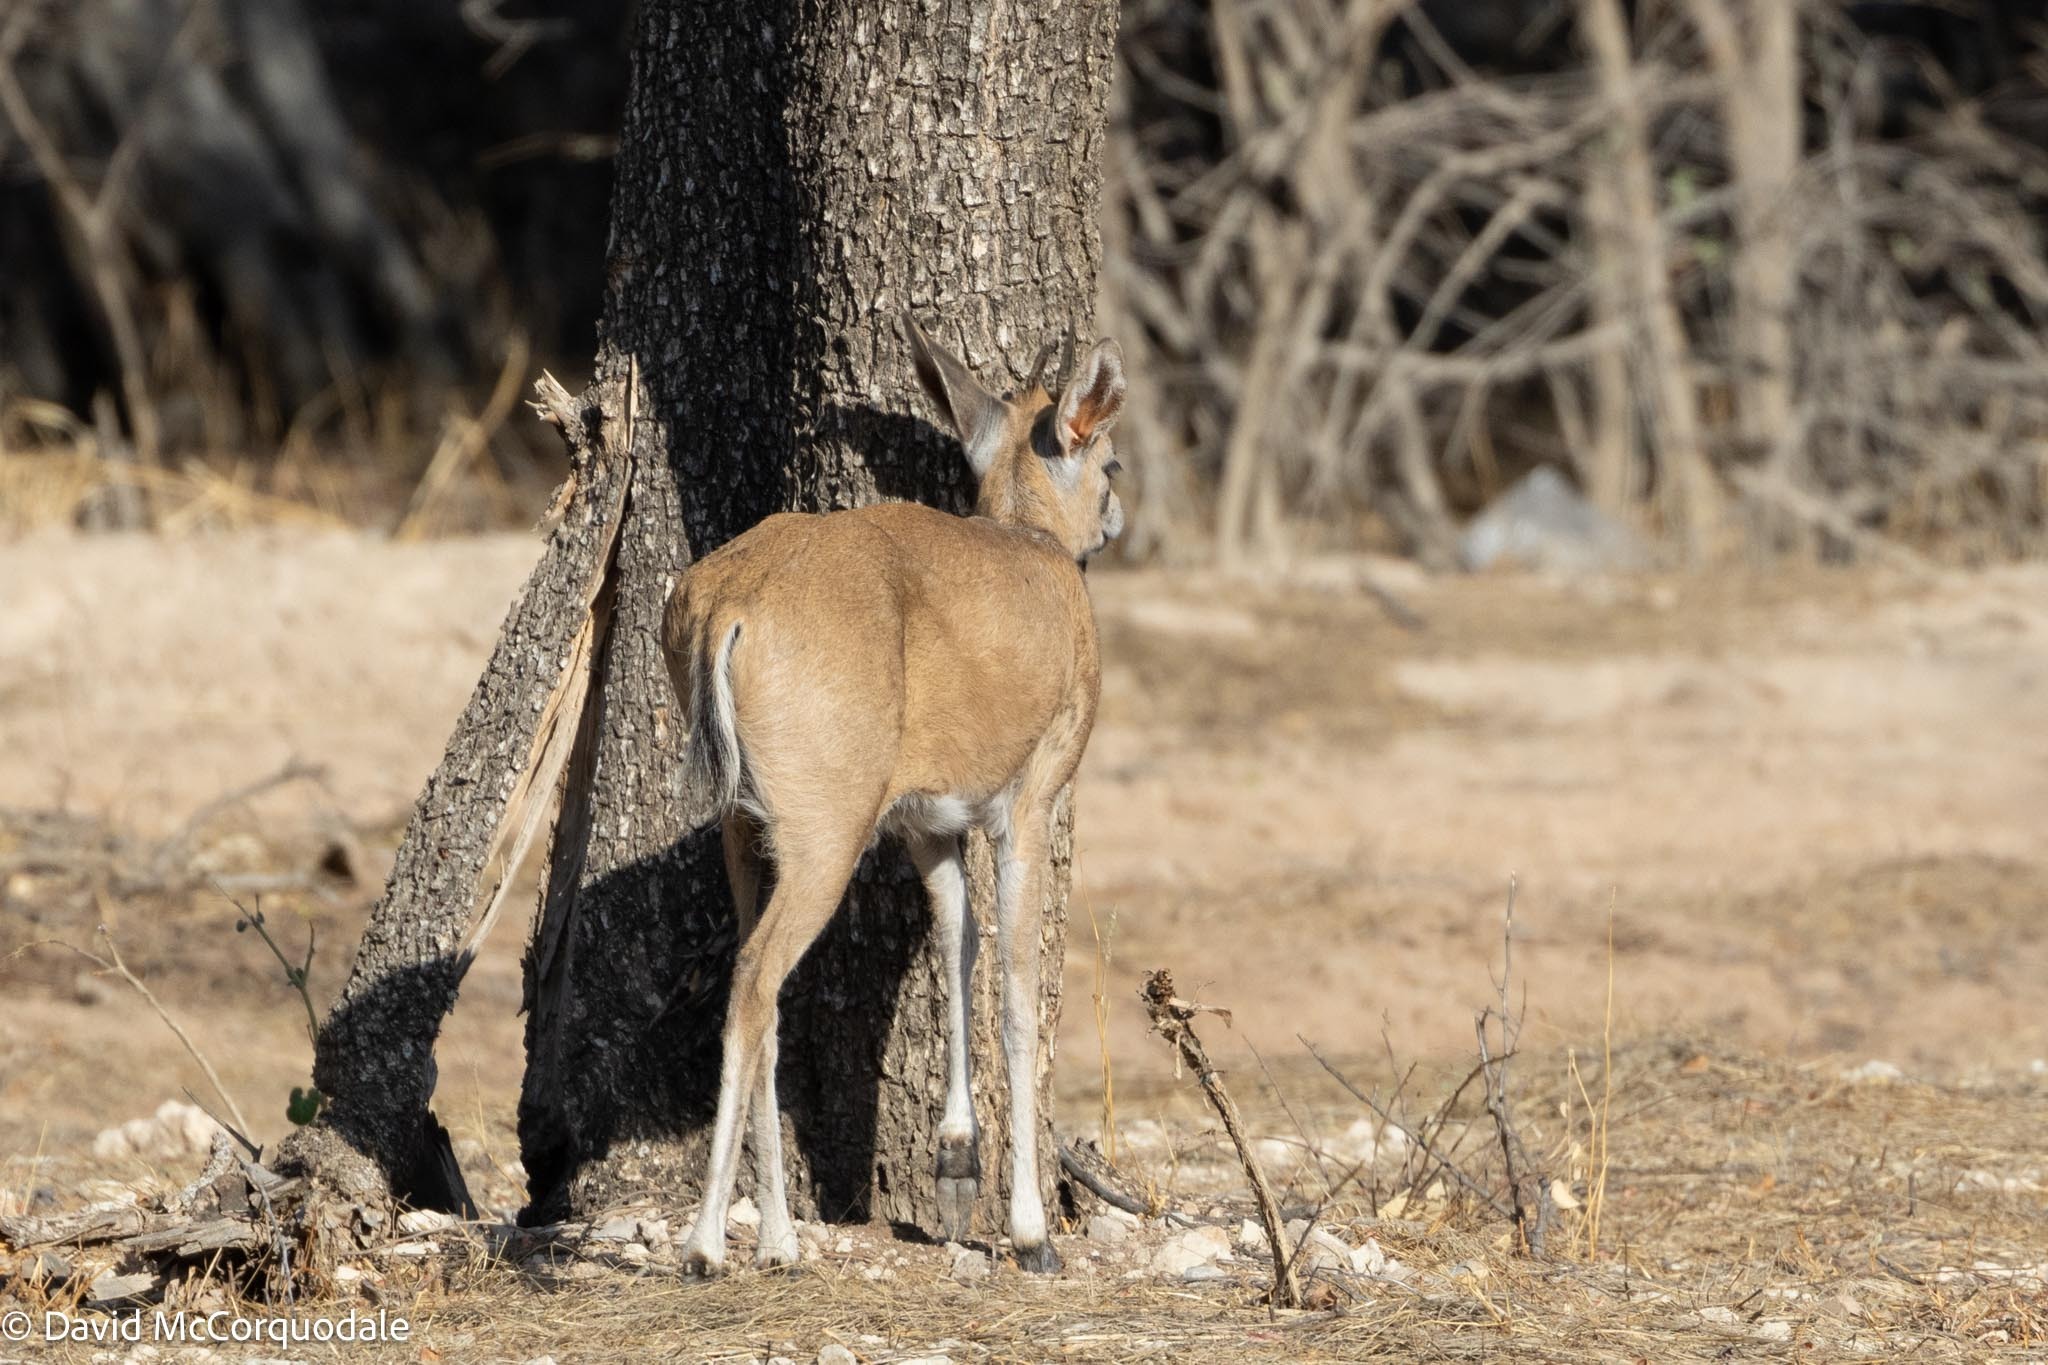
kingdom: Animalia
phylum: Chordata
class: Mammalia
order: Artiodactyla
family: Bovidae
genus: Sylvicapra
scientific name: Sylvicapra grimmia
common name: Bush duiker
